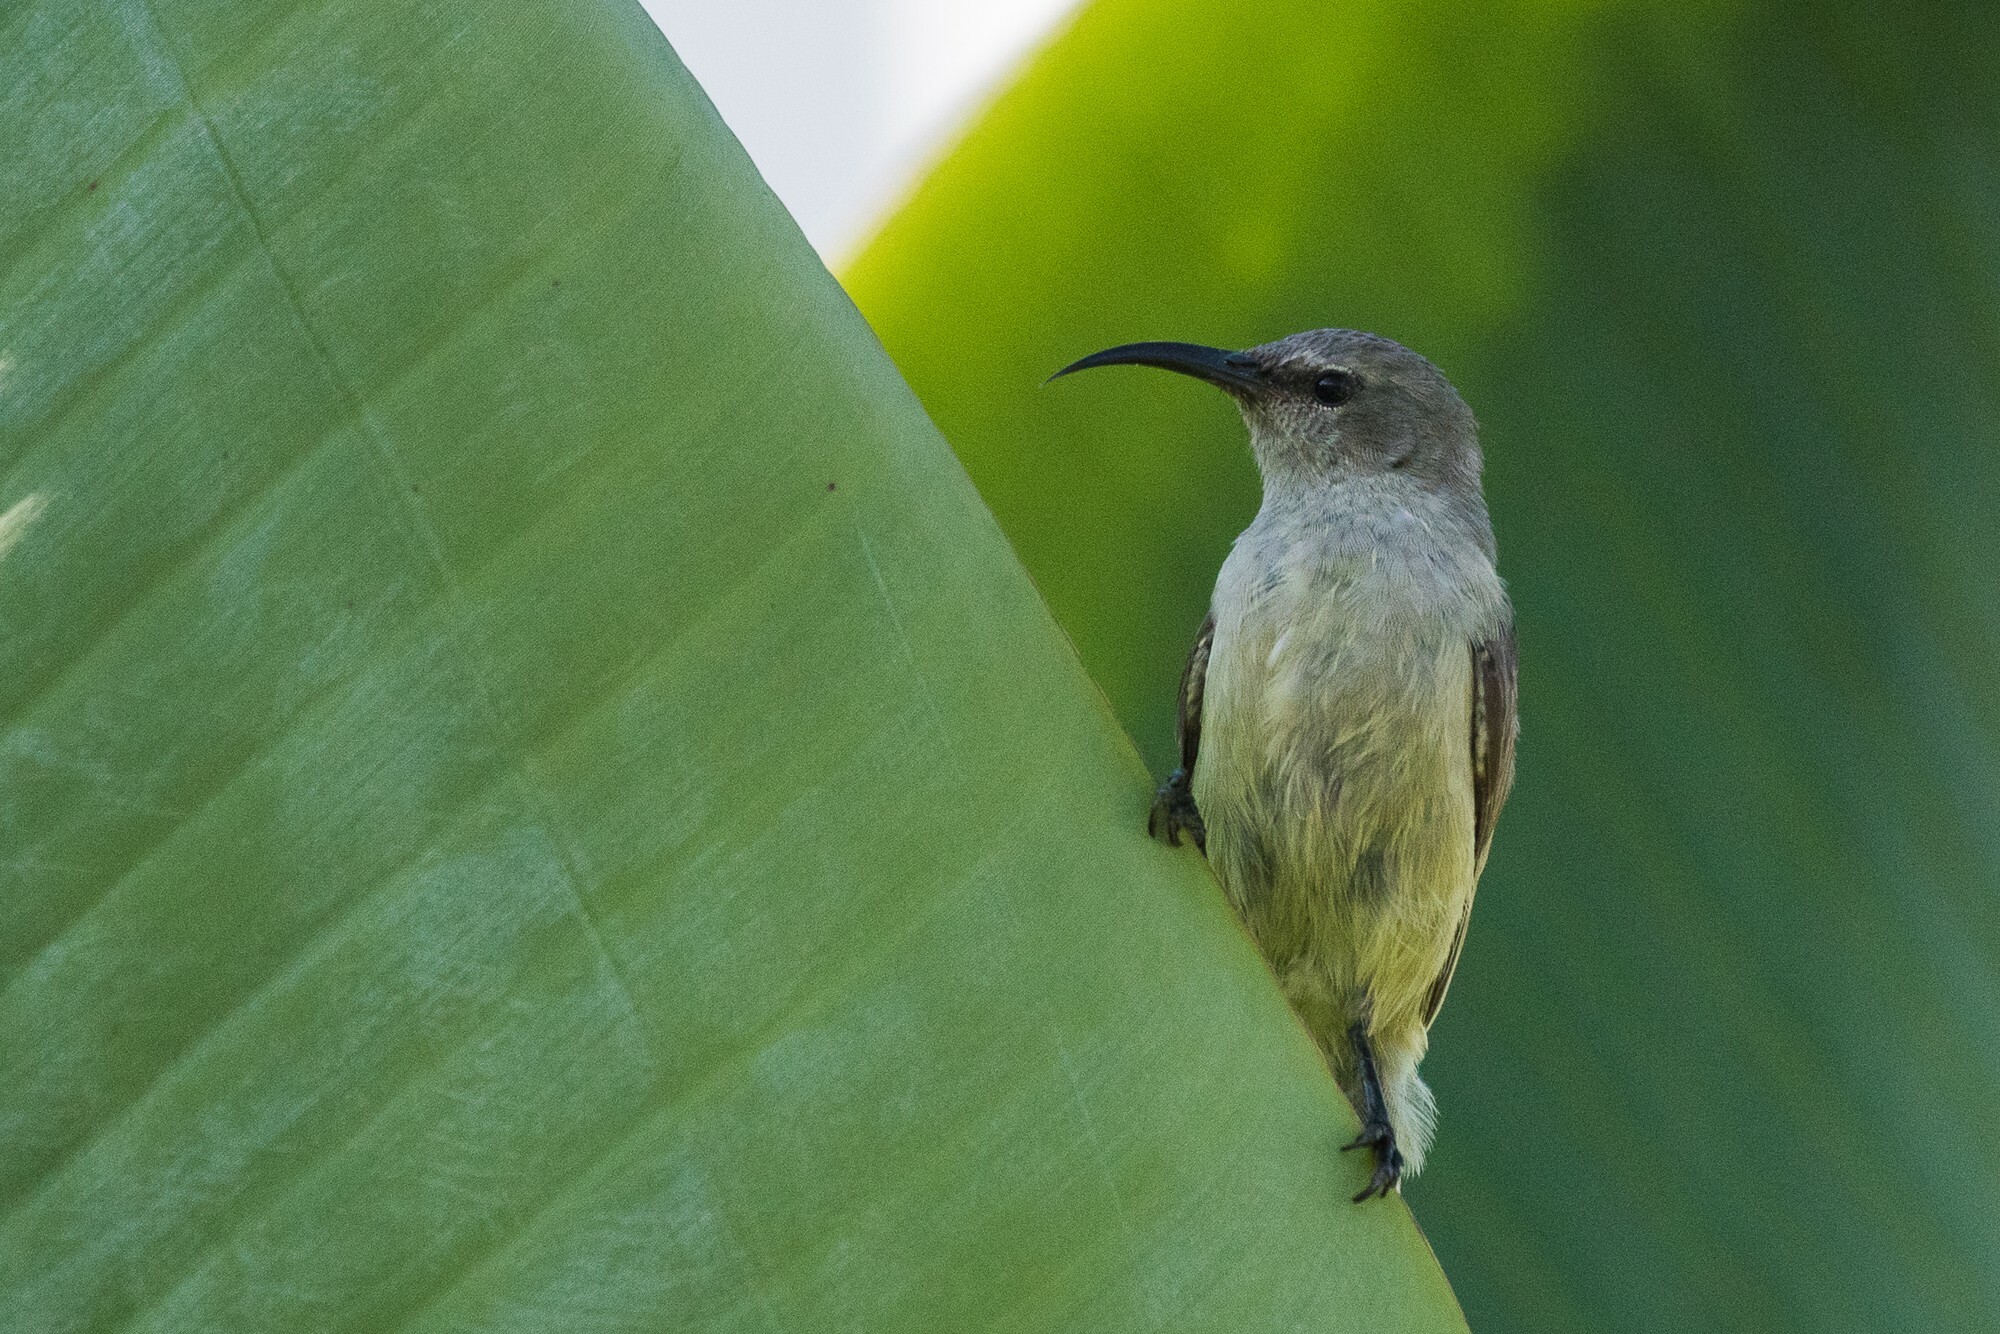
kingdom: Animalia
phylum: Chordata
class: Aves
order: Passeriformes
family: Nectariniidae
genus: Cinnyris
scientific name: Cinnyris manoensis
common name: Eastern miombo sunbird
